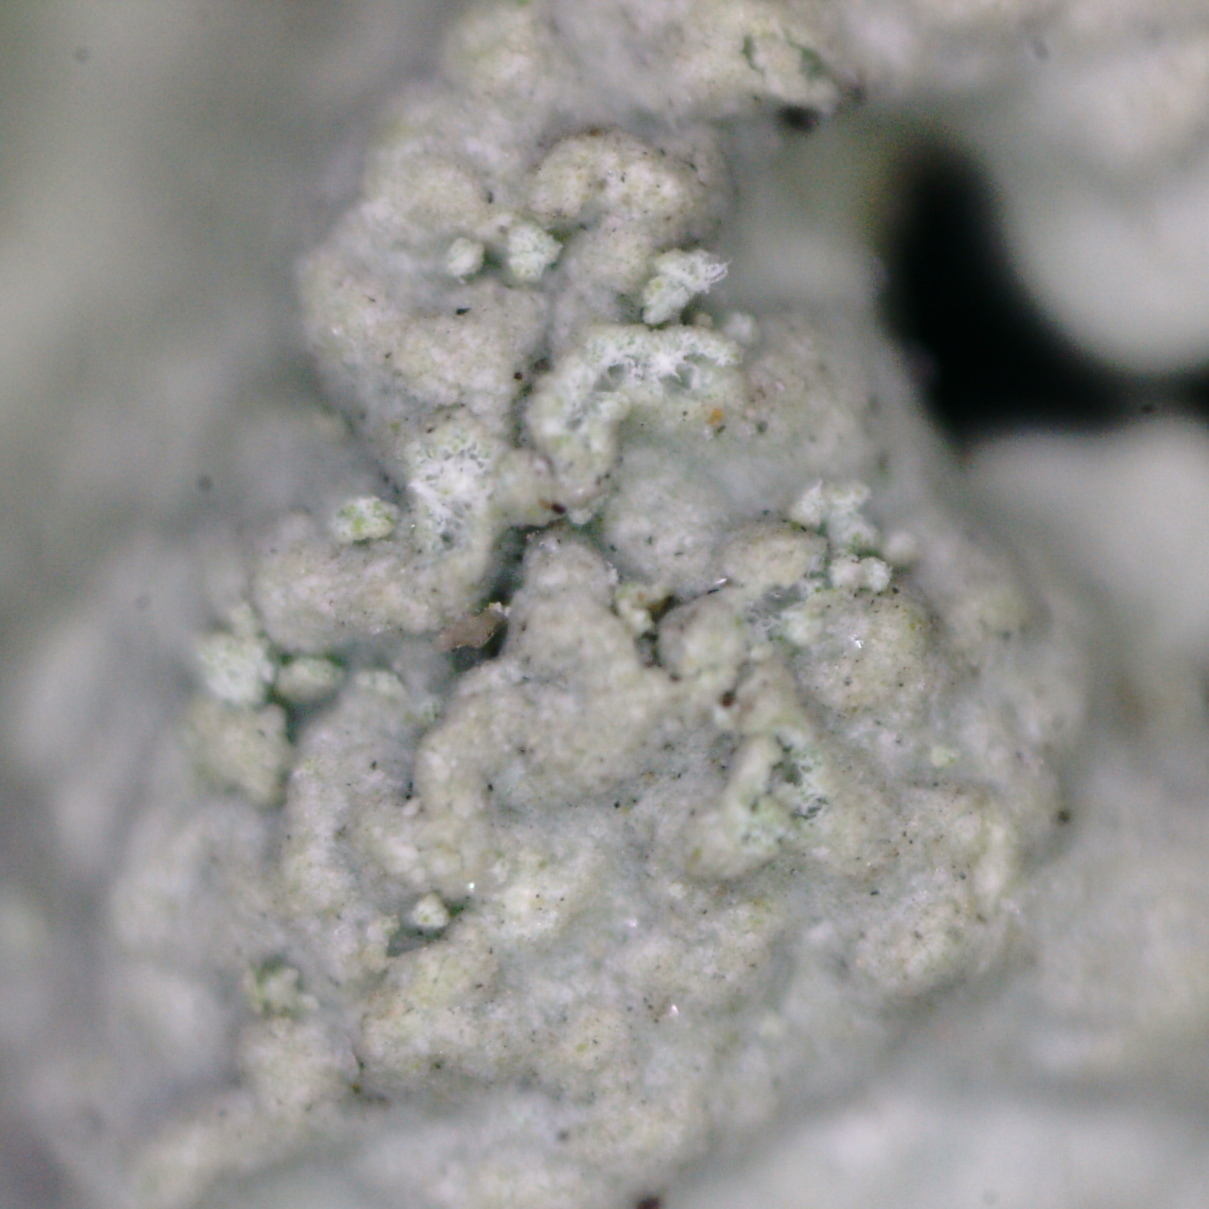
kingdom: Fungi
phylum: Ascomycota
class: Lecanoromycetes
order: Lecanorales
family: Parmeliaceae
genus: Hypogymnia
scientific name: Hypogymnia farinacea
